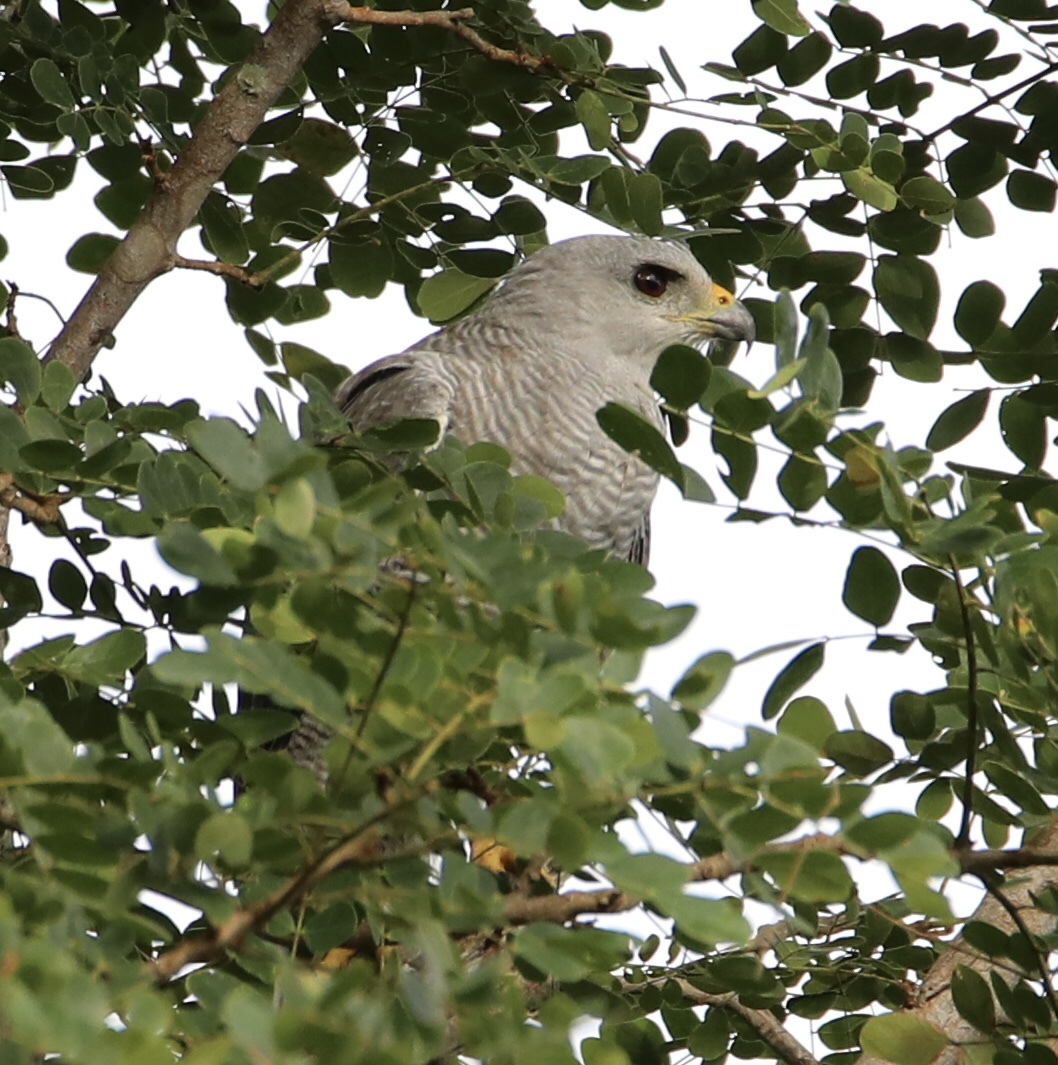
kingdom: Animalia
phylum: Chordata
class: Aves
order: Accipitriformes
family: Accipitridae
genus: Buteo
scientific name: Buteo nitidus
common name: Grey-lined hawk
